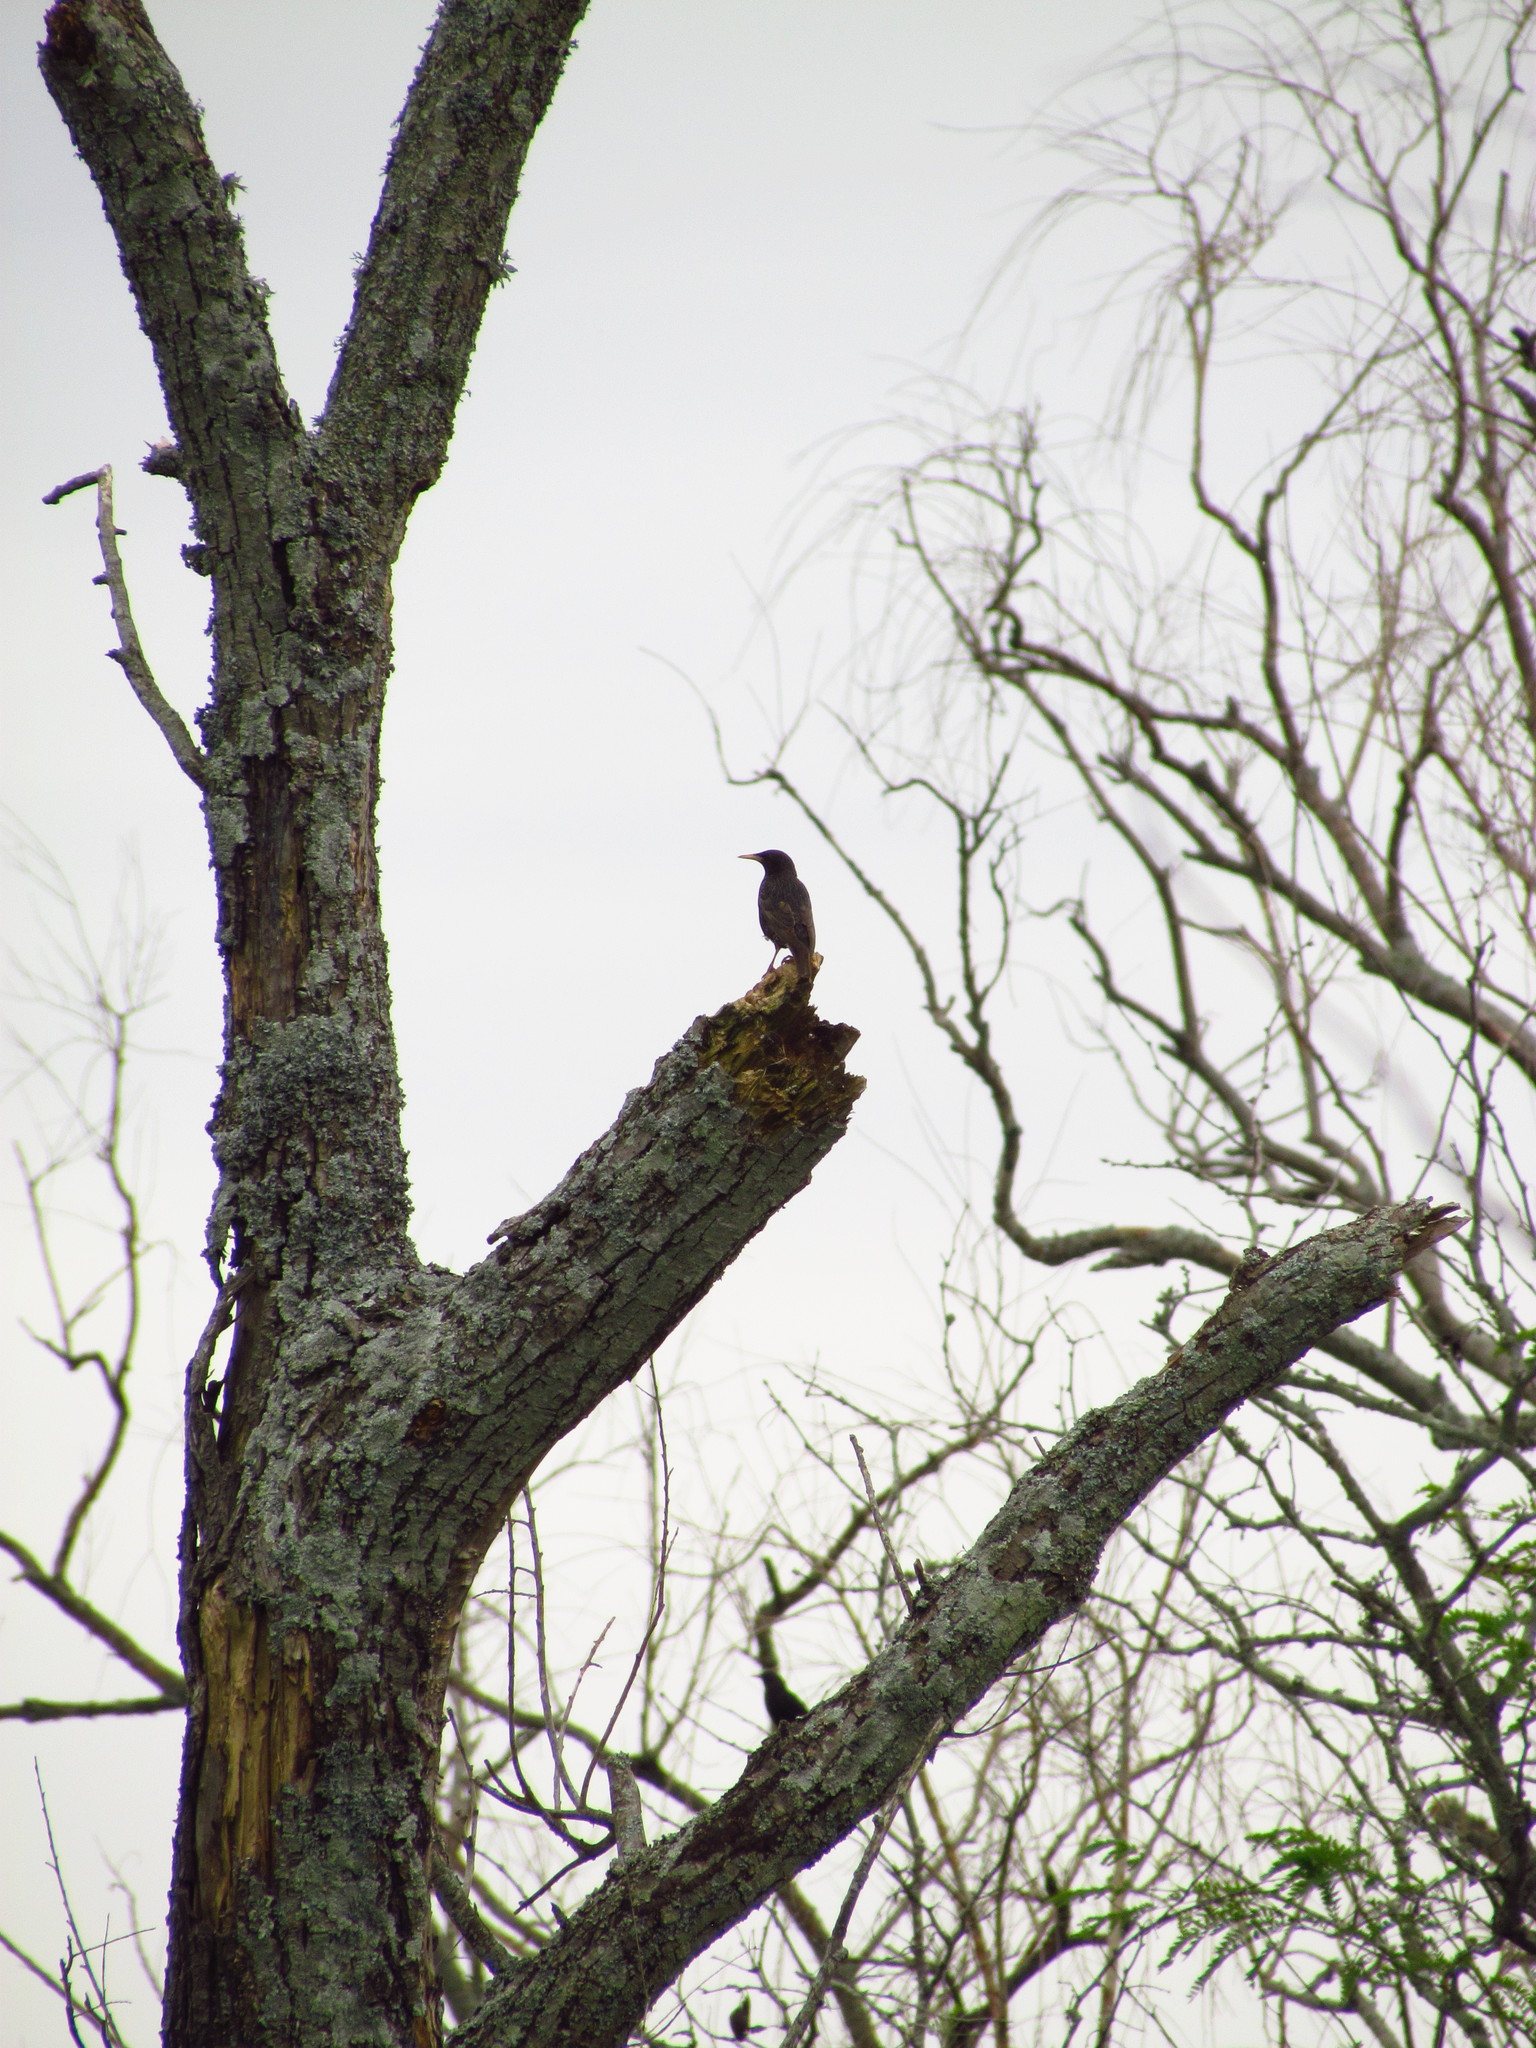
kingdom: Animalia
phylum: Chordata
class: Aves
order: Passeriformes
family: Sturnidae
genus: Sturnus
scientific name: Sturnus vulgaris
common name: Common starling
